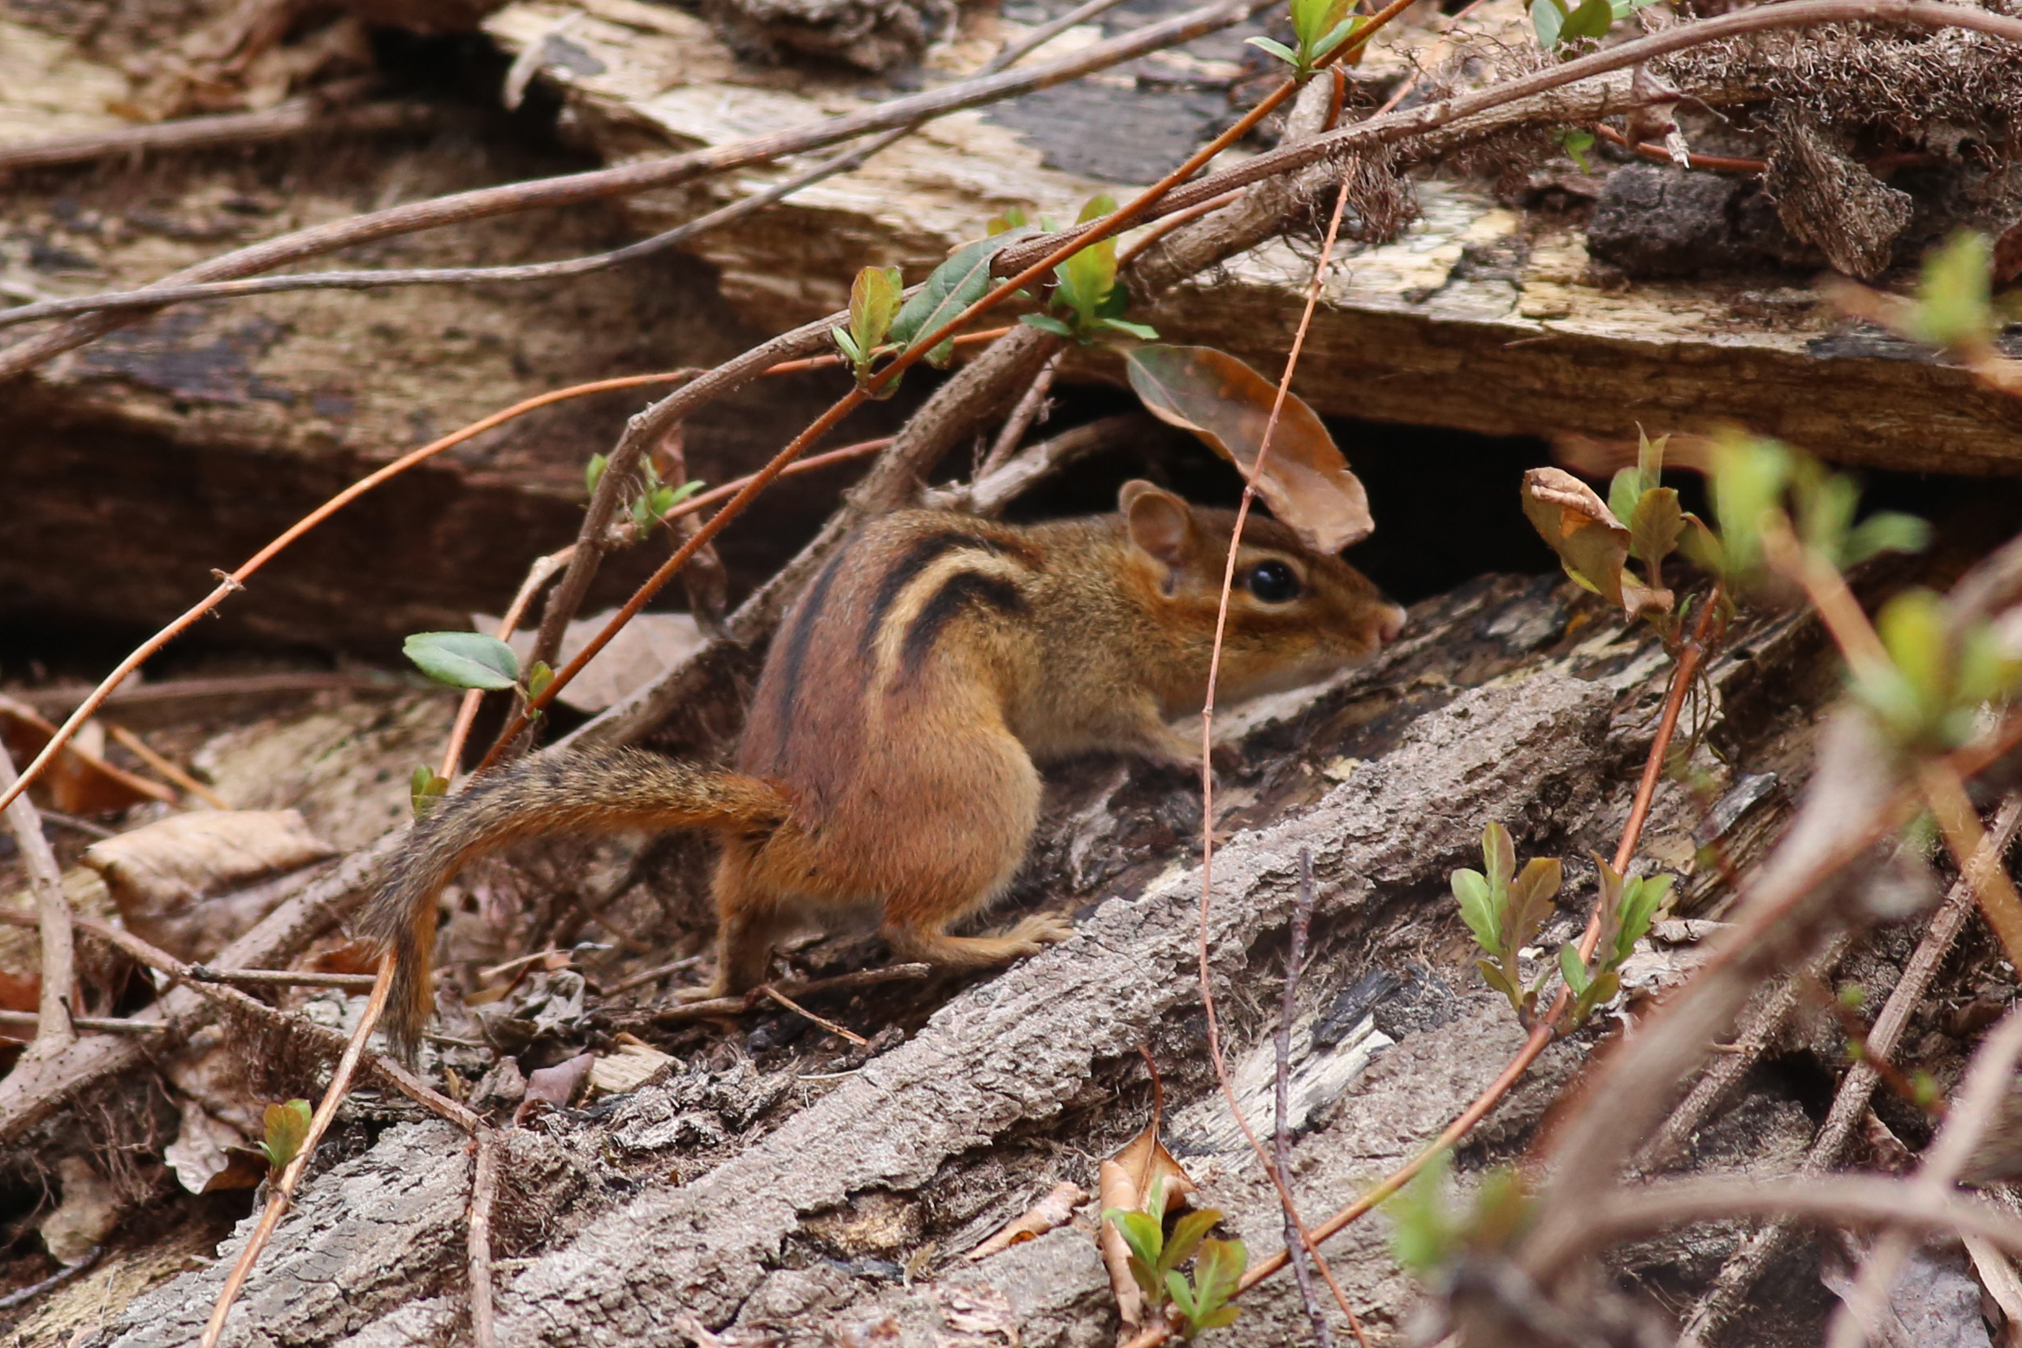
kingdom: Animalia
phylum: Chordata
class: Mammalia
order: Rodentia
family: Sciuridae
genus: Tamias
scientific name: Tamias striatus
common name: Eastern chipmunk
